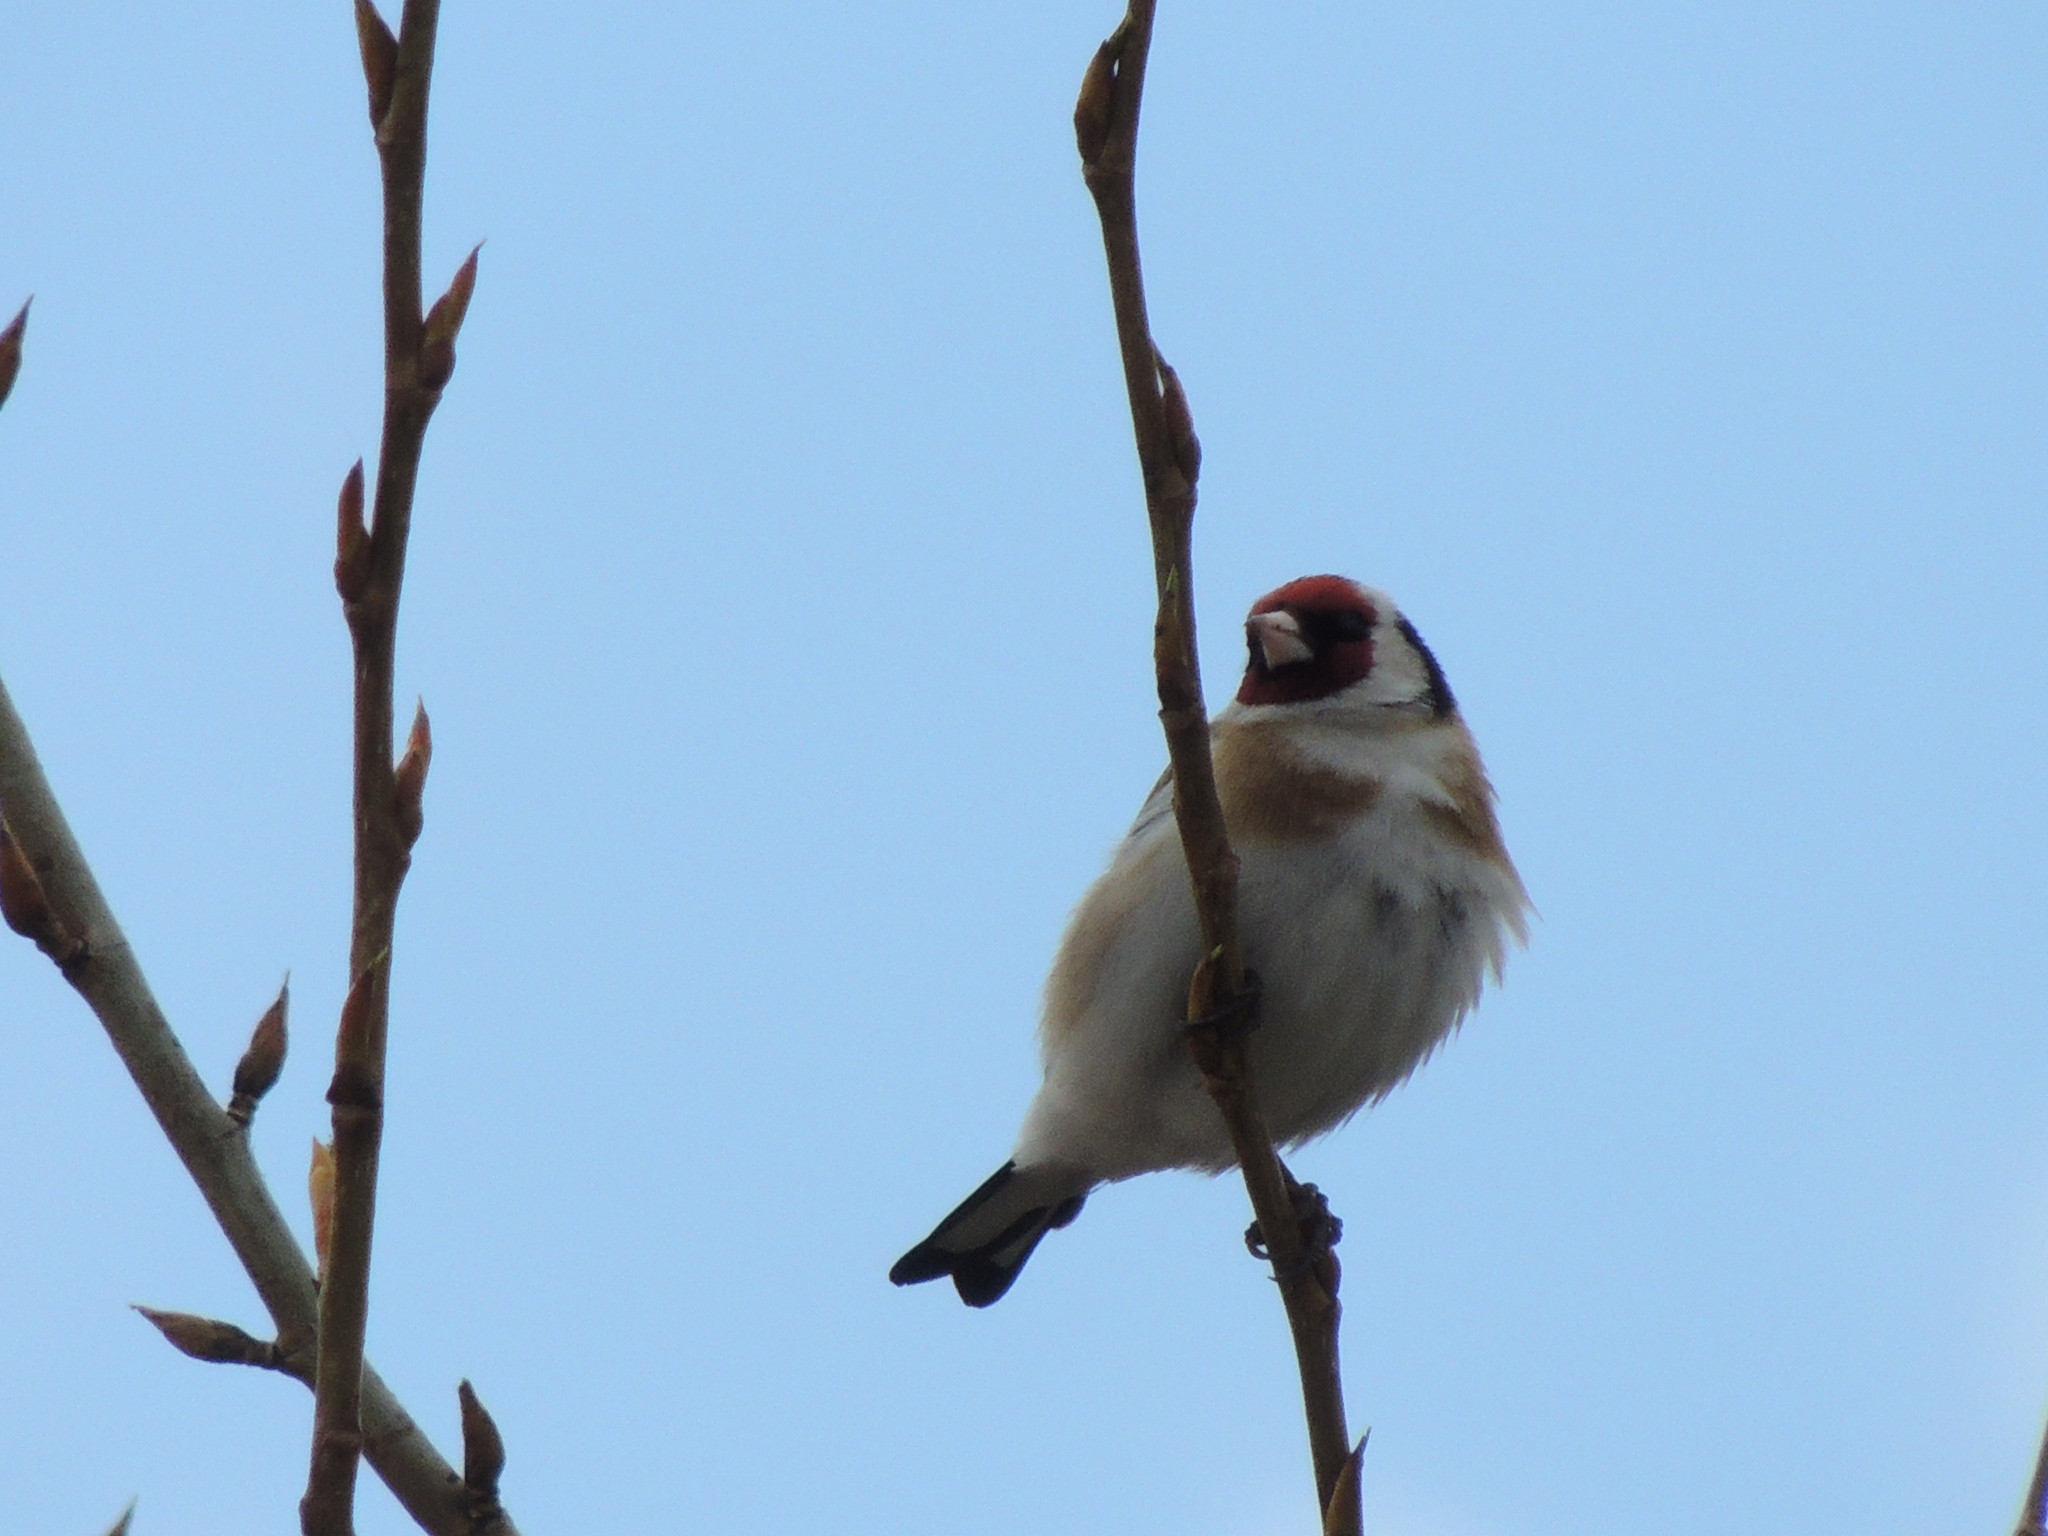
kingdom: Animalia
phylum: Chordata
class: Aves
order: Passeriformes
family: Fringillidae
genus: Carduelis
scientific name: Carduelis carduelis
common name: European goldfinch
